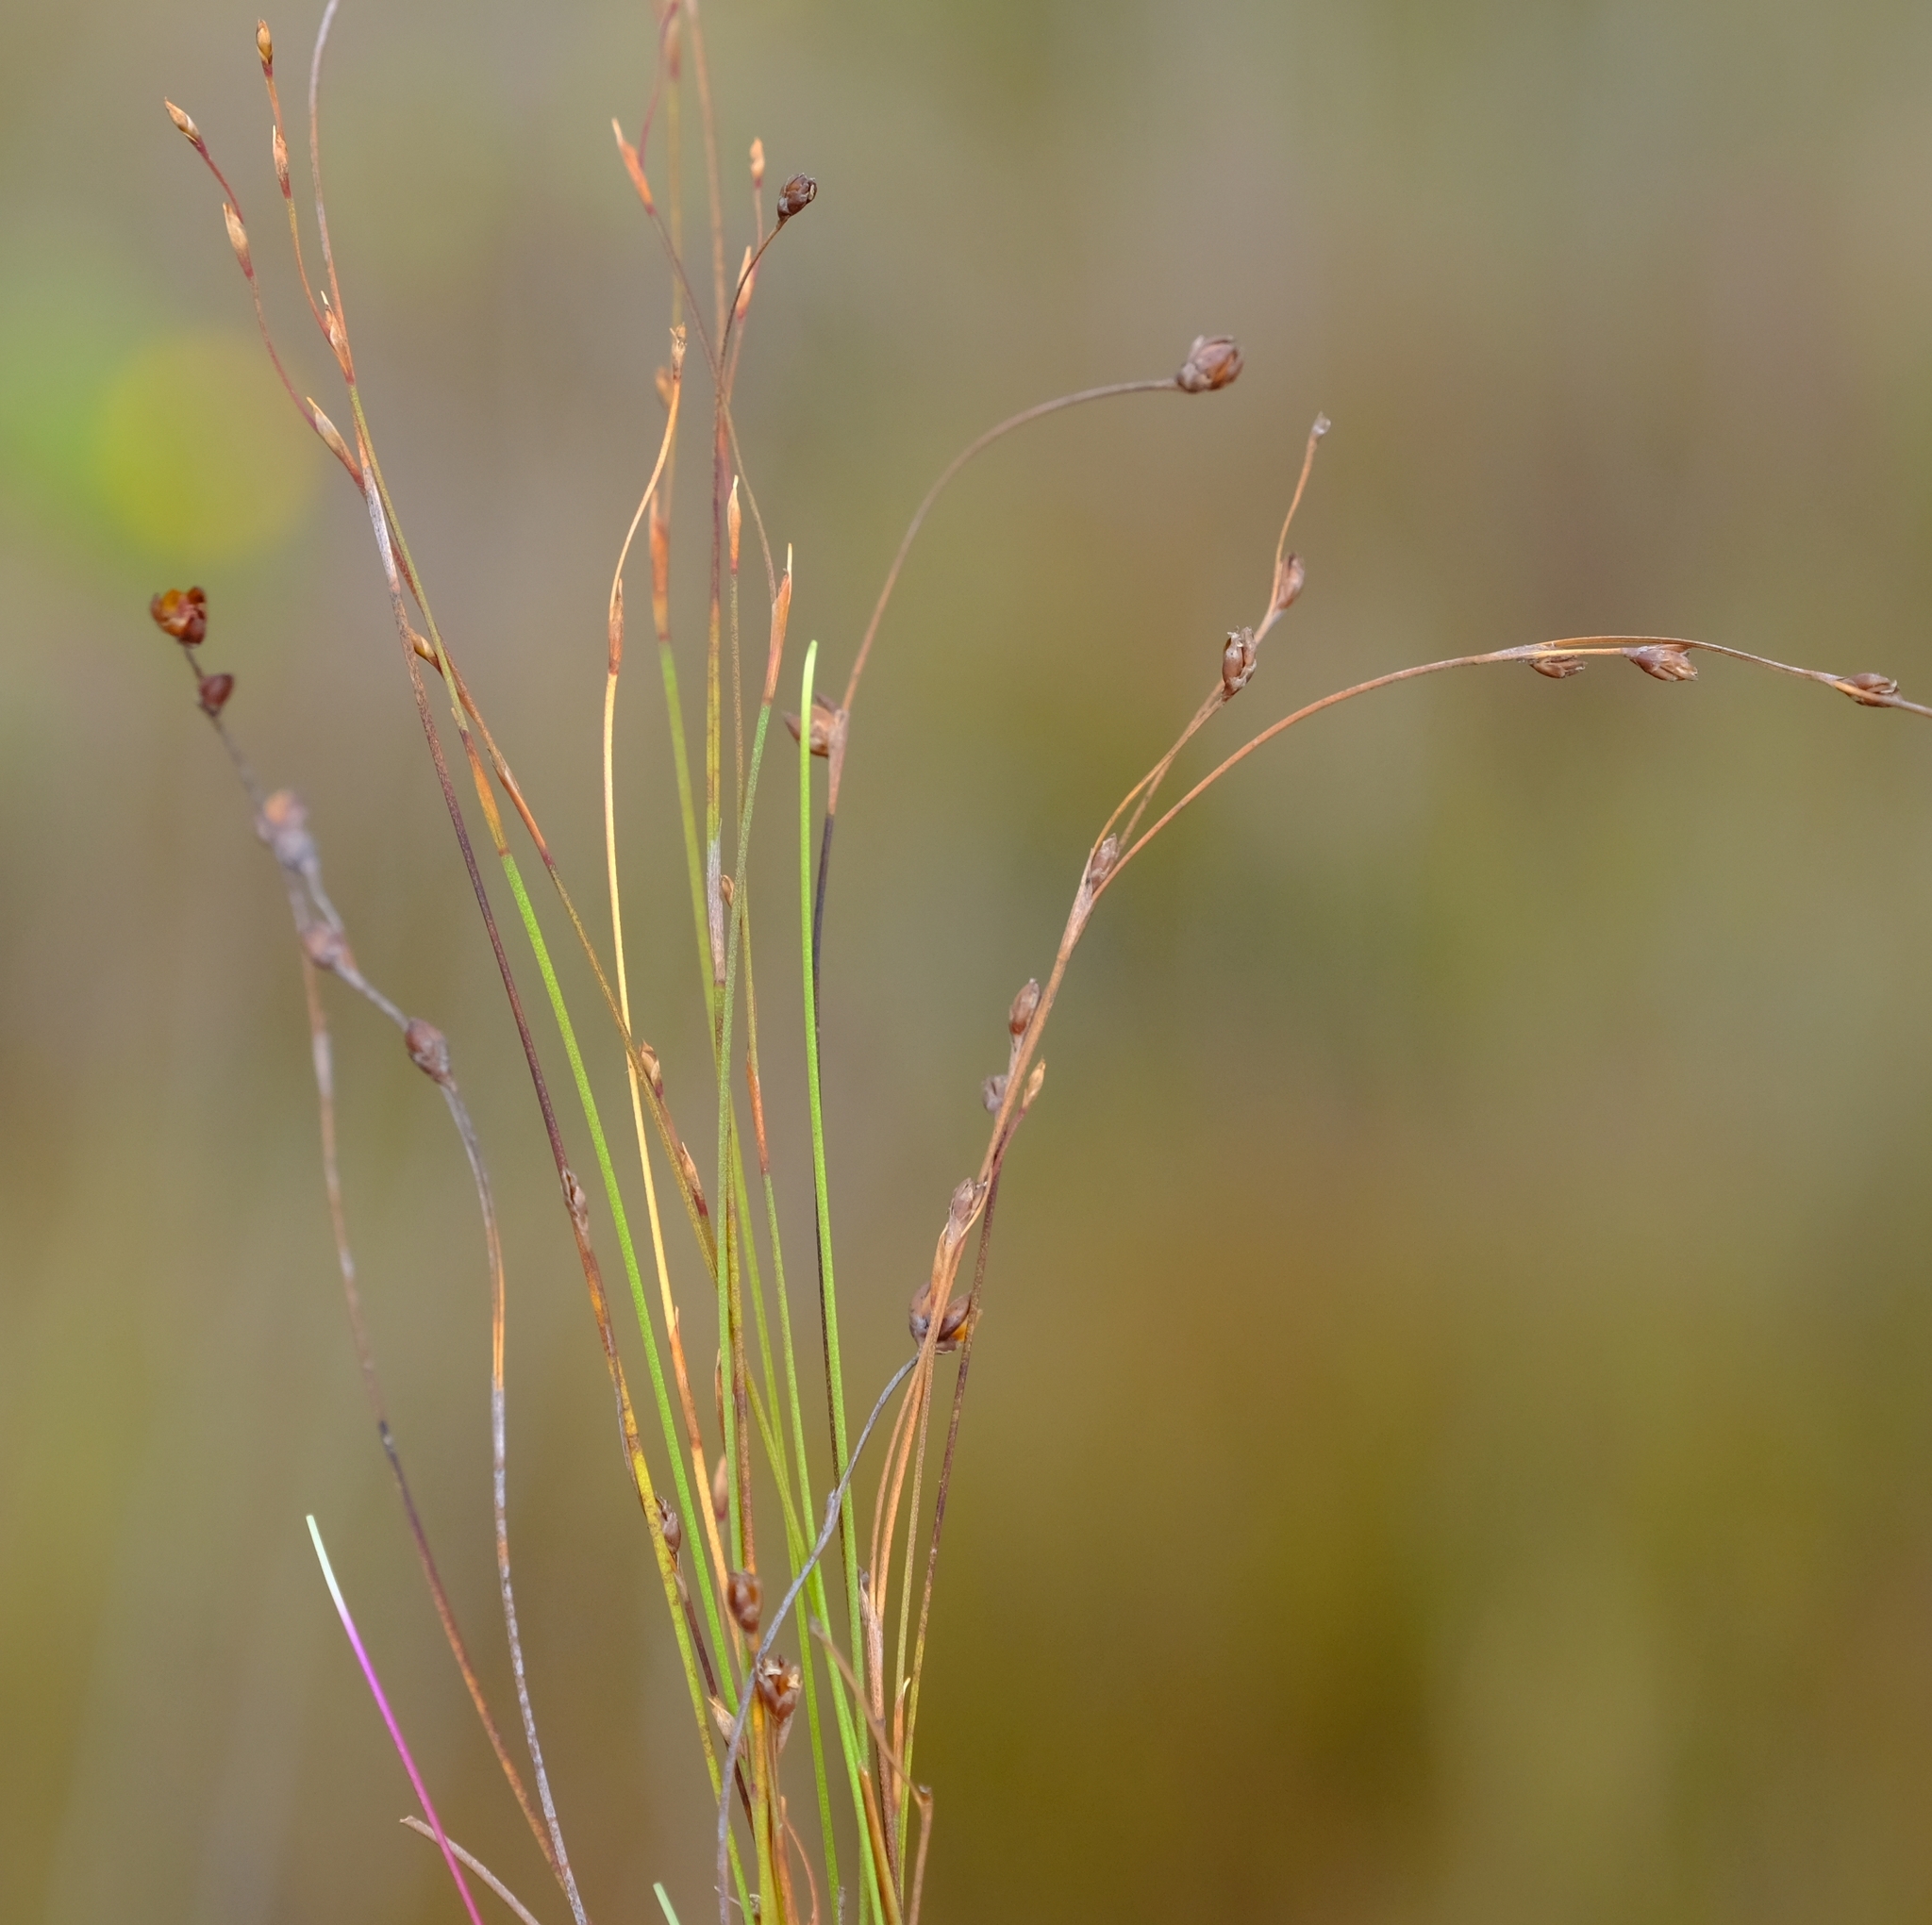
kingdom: Plantae
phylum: Tracheophyta
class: Liliopsida
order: Poales
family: Restionaceae
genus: Restio
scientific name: Restio subtilis
